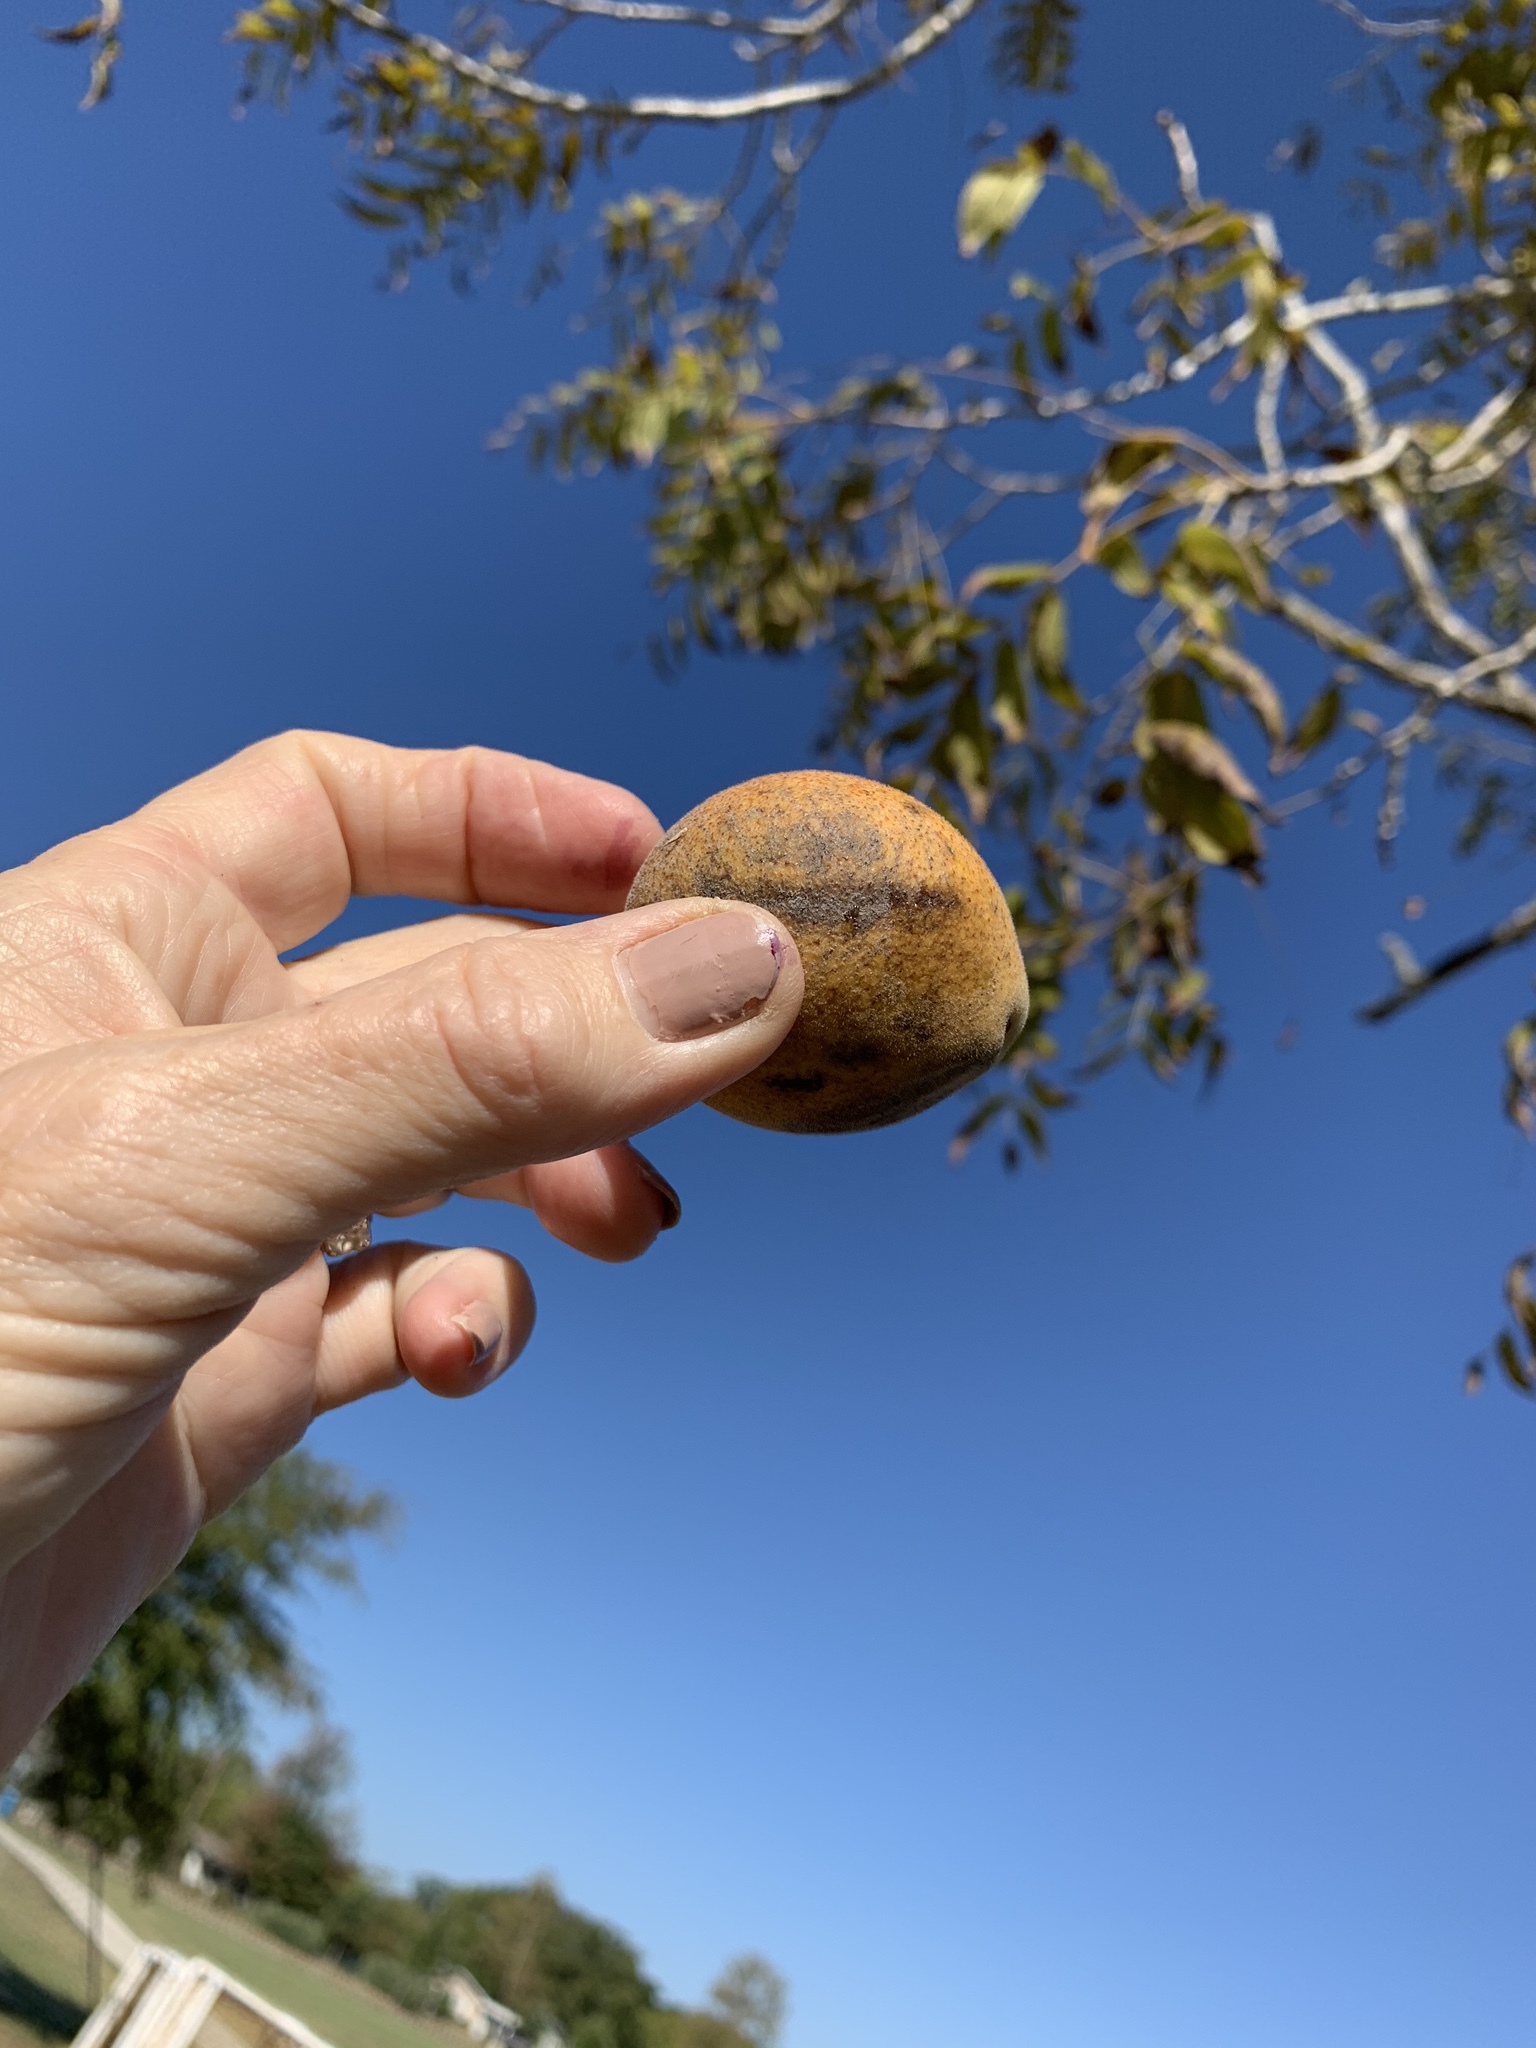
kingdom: Plantae
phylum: Tracheophyta
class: Magnoliopsida
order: Fagales
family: Juglandaceae
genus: Juglans
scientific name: Juglans nigra
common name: Black walnut
